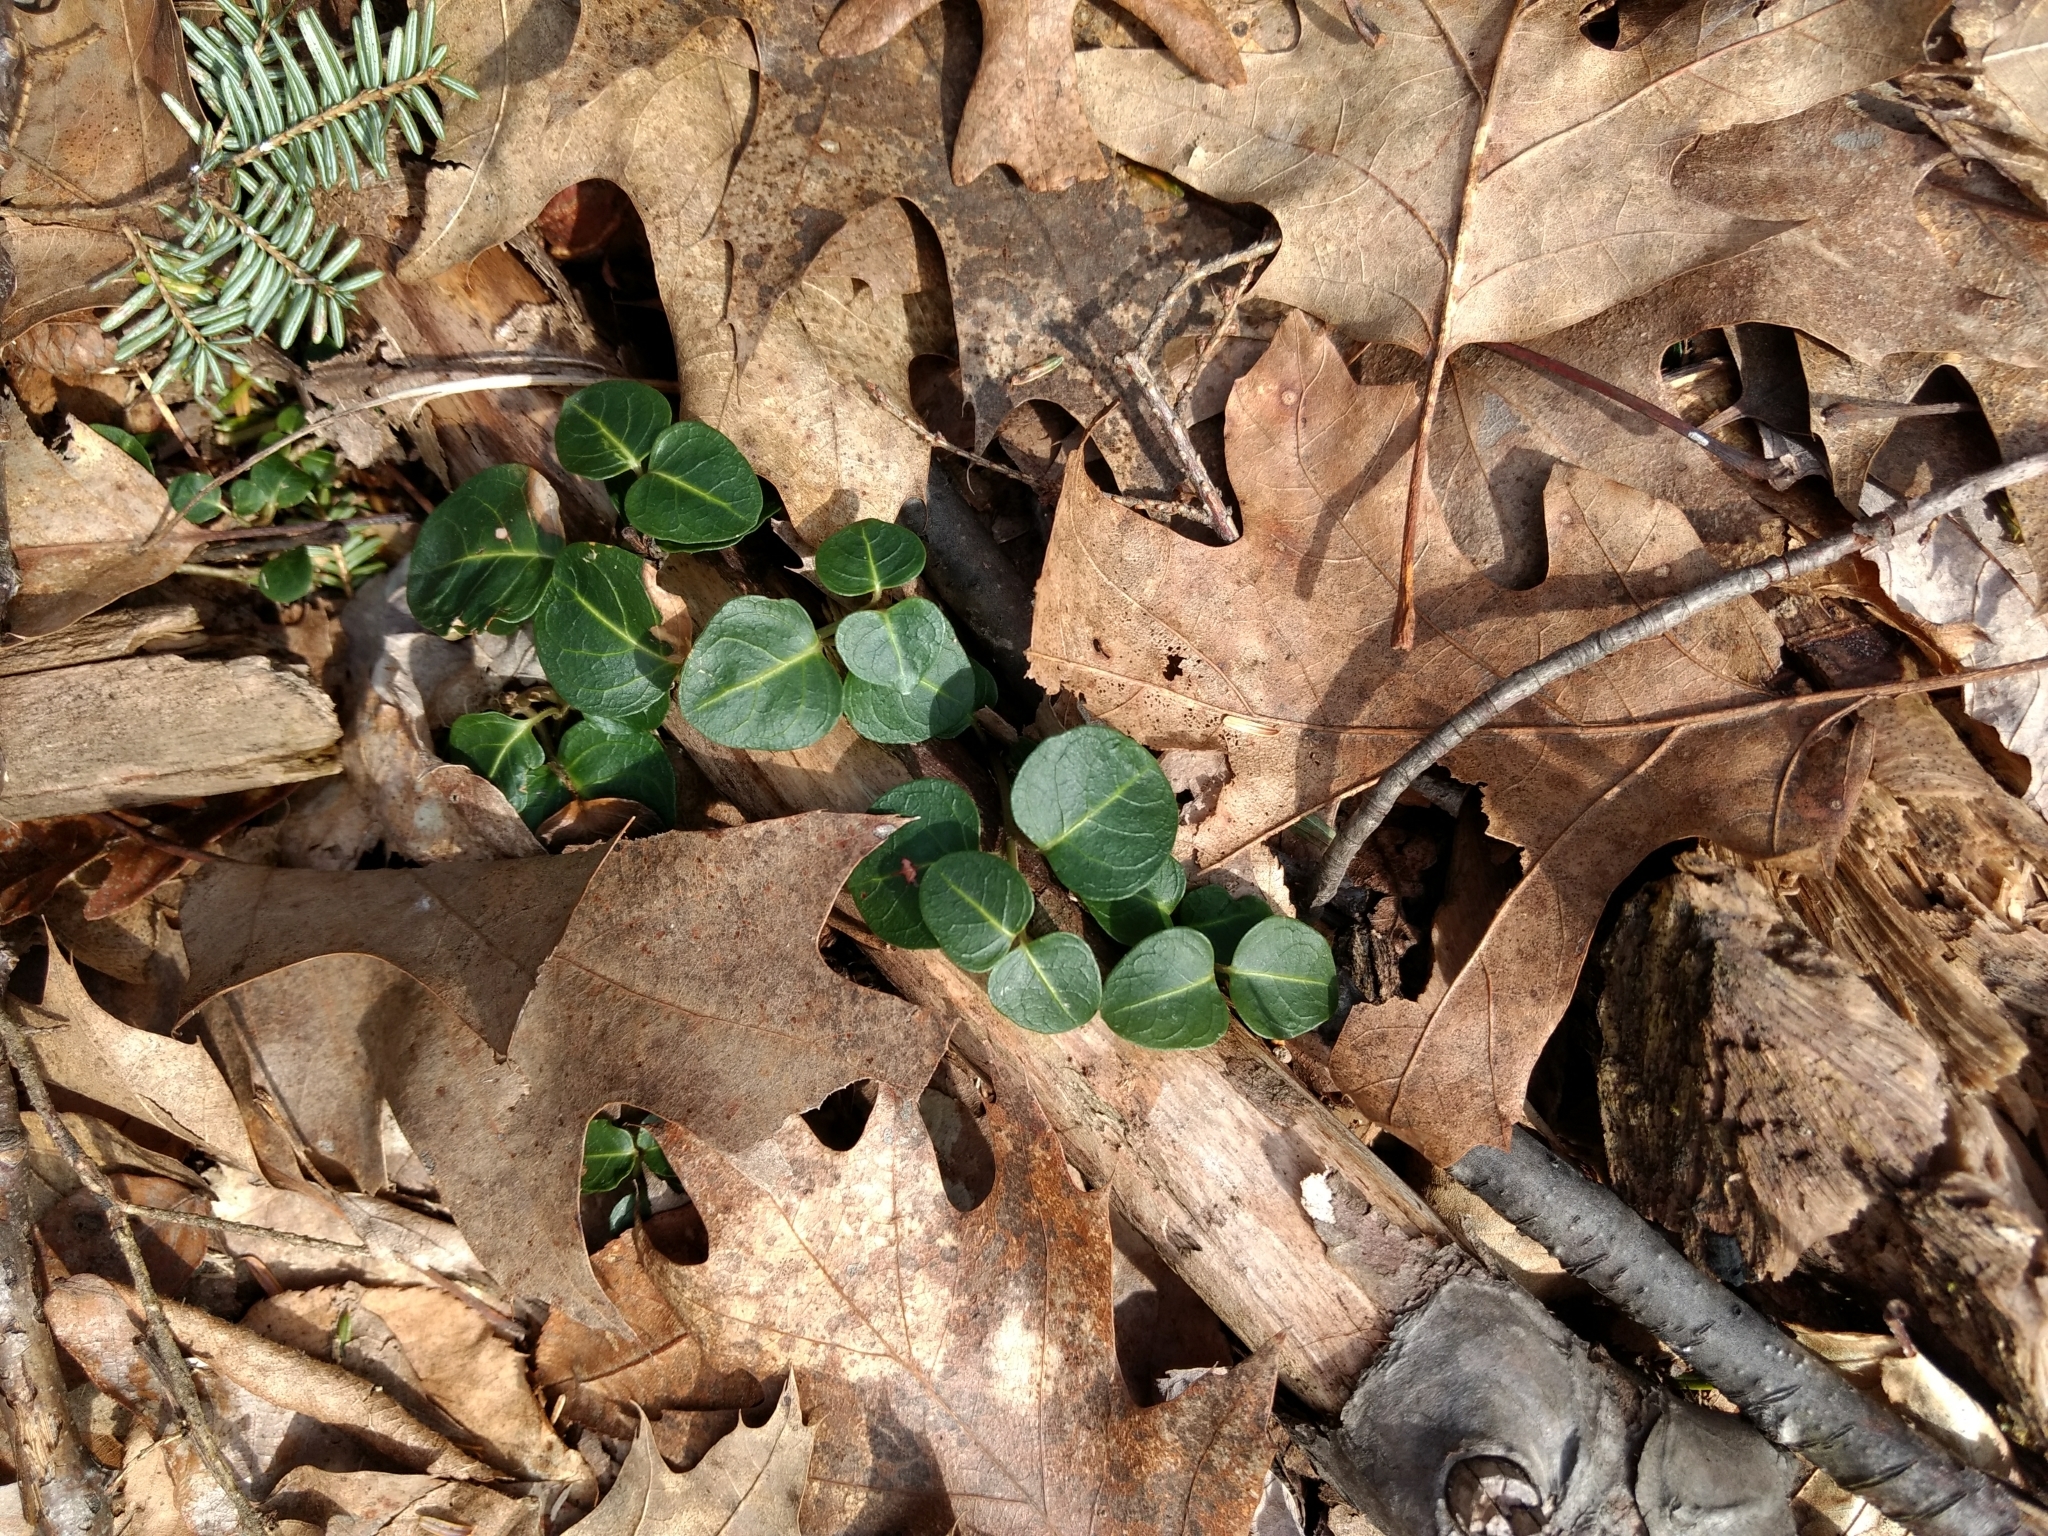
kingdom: Plantae
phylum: Tracheophyta
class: Magnoliopsida
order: Gentianales
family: Rubiaceae
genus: Mitchella
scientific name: Mitchella repens
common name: Partridge-berry
